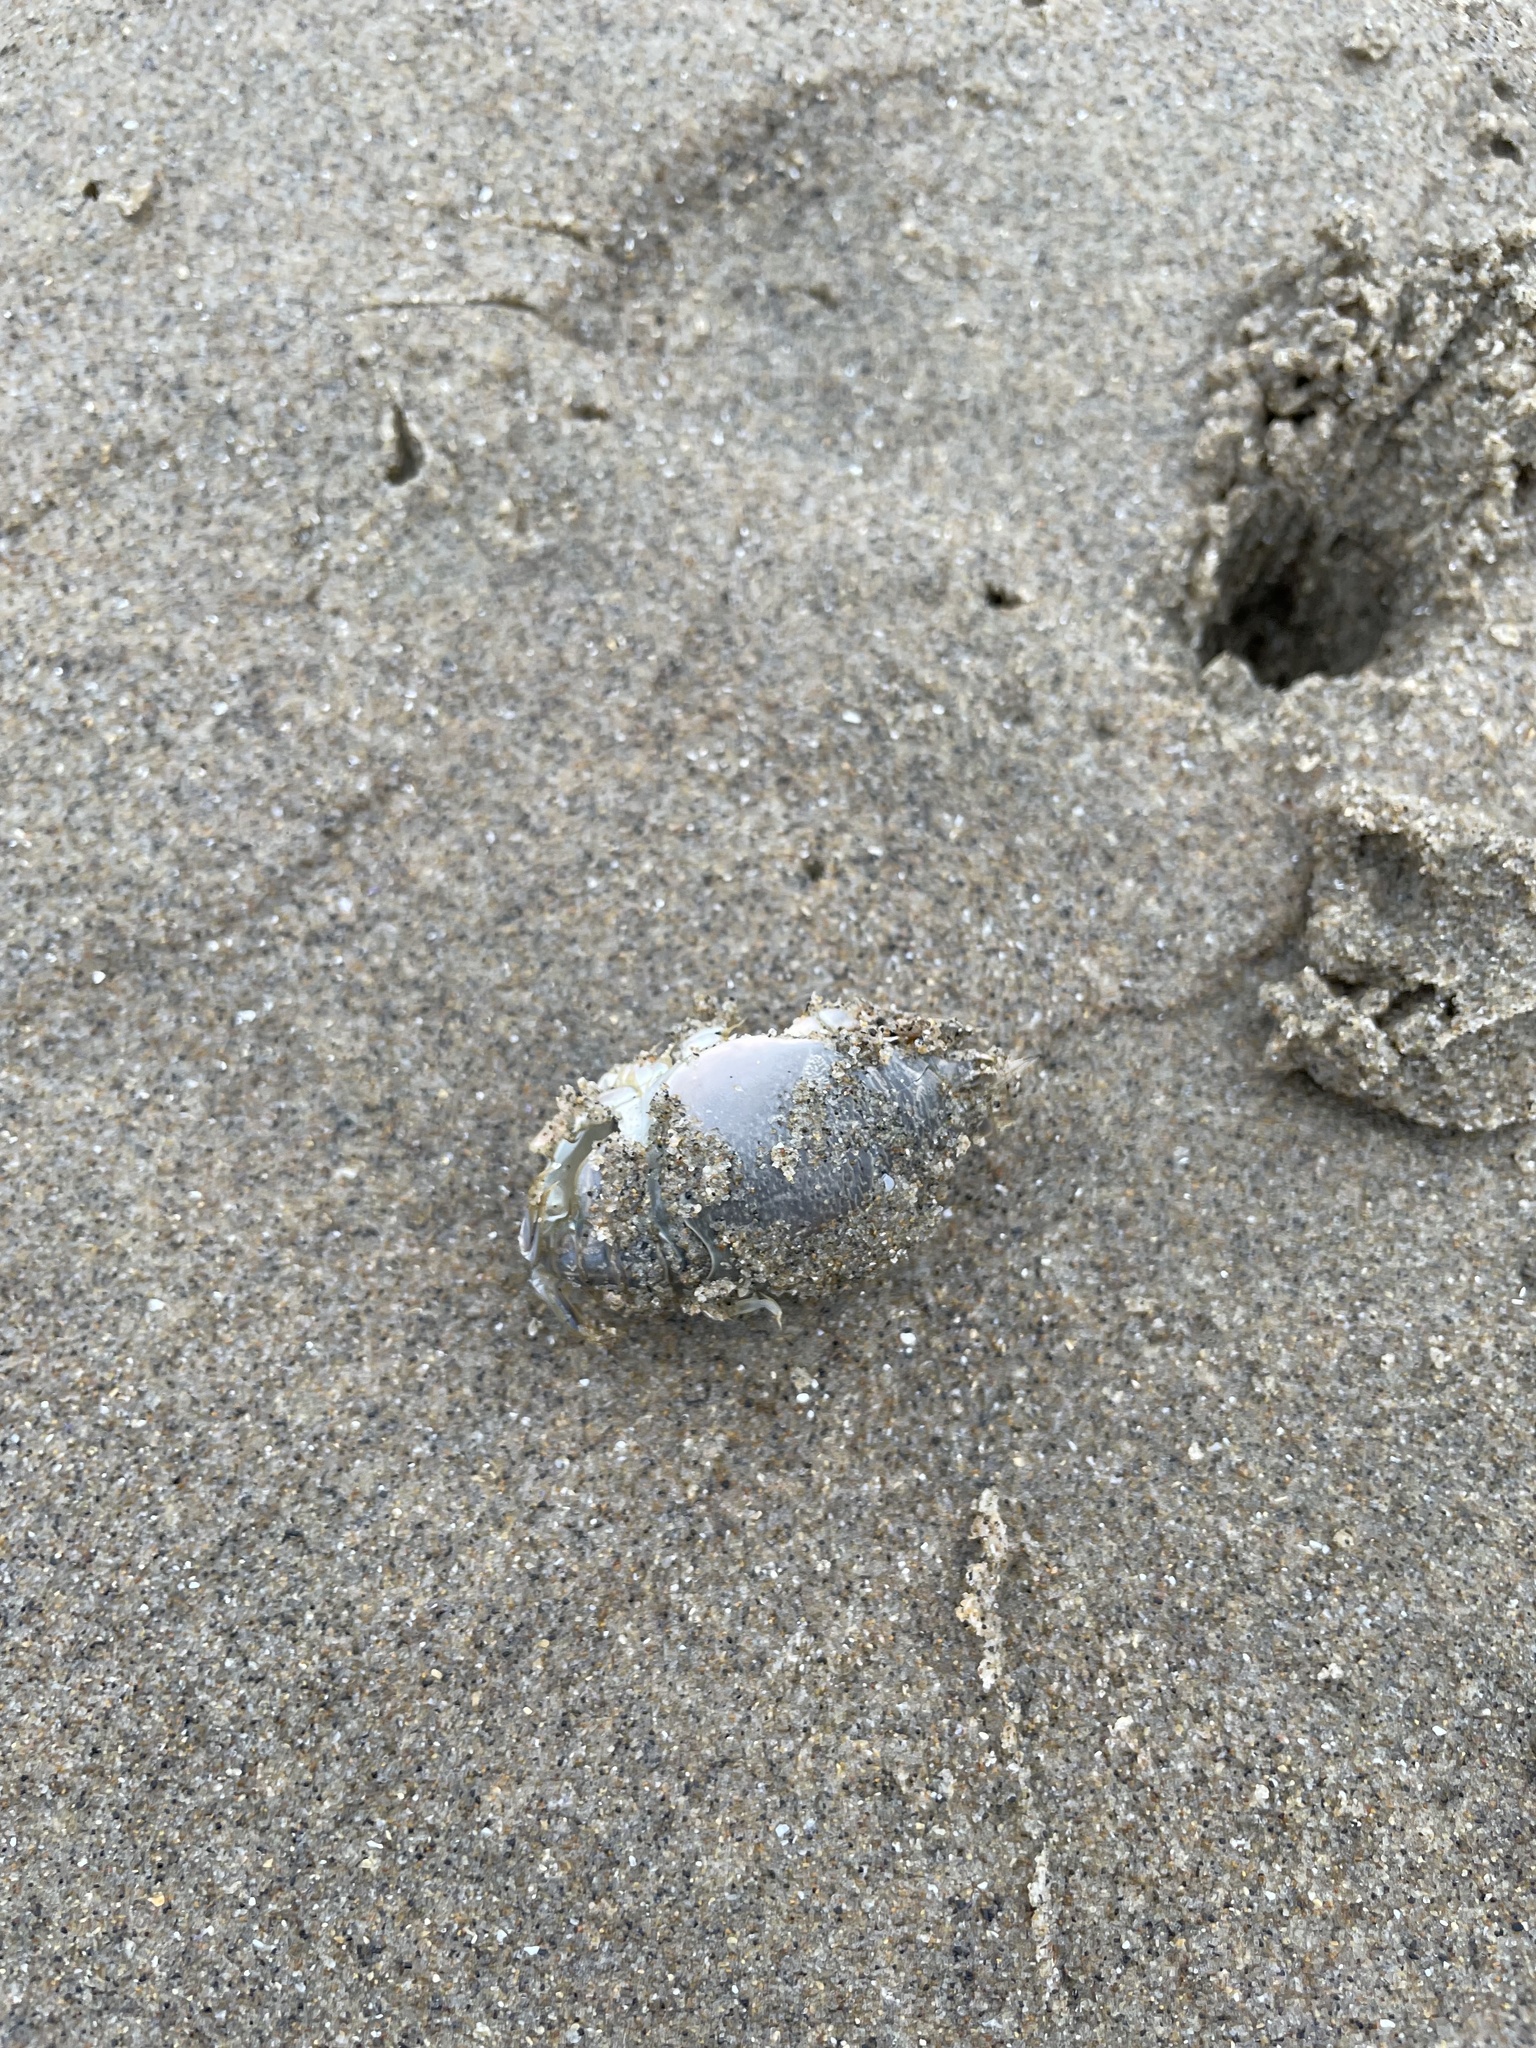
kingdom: Animalia
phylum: Arthropoda
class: Malacostraca
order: Decapoda
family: Hippidae
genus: Emerita
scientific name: Emerita analoga
